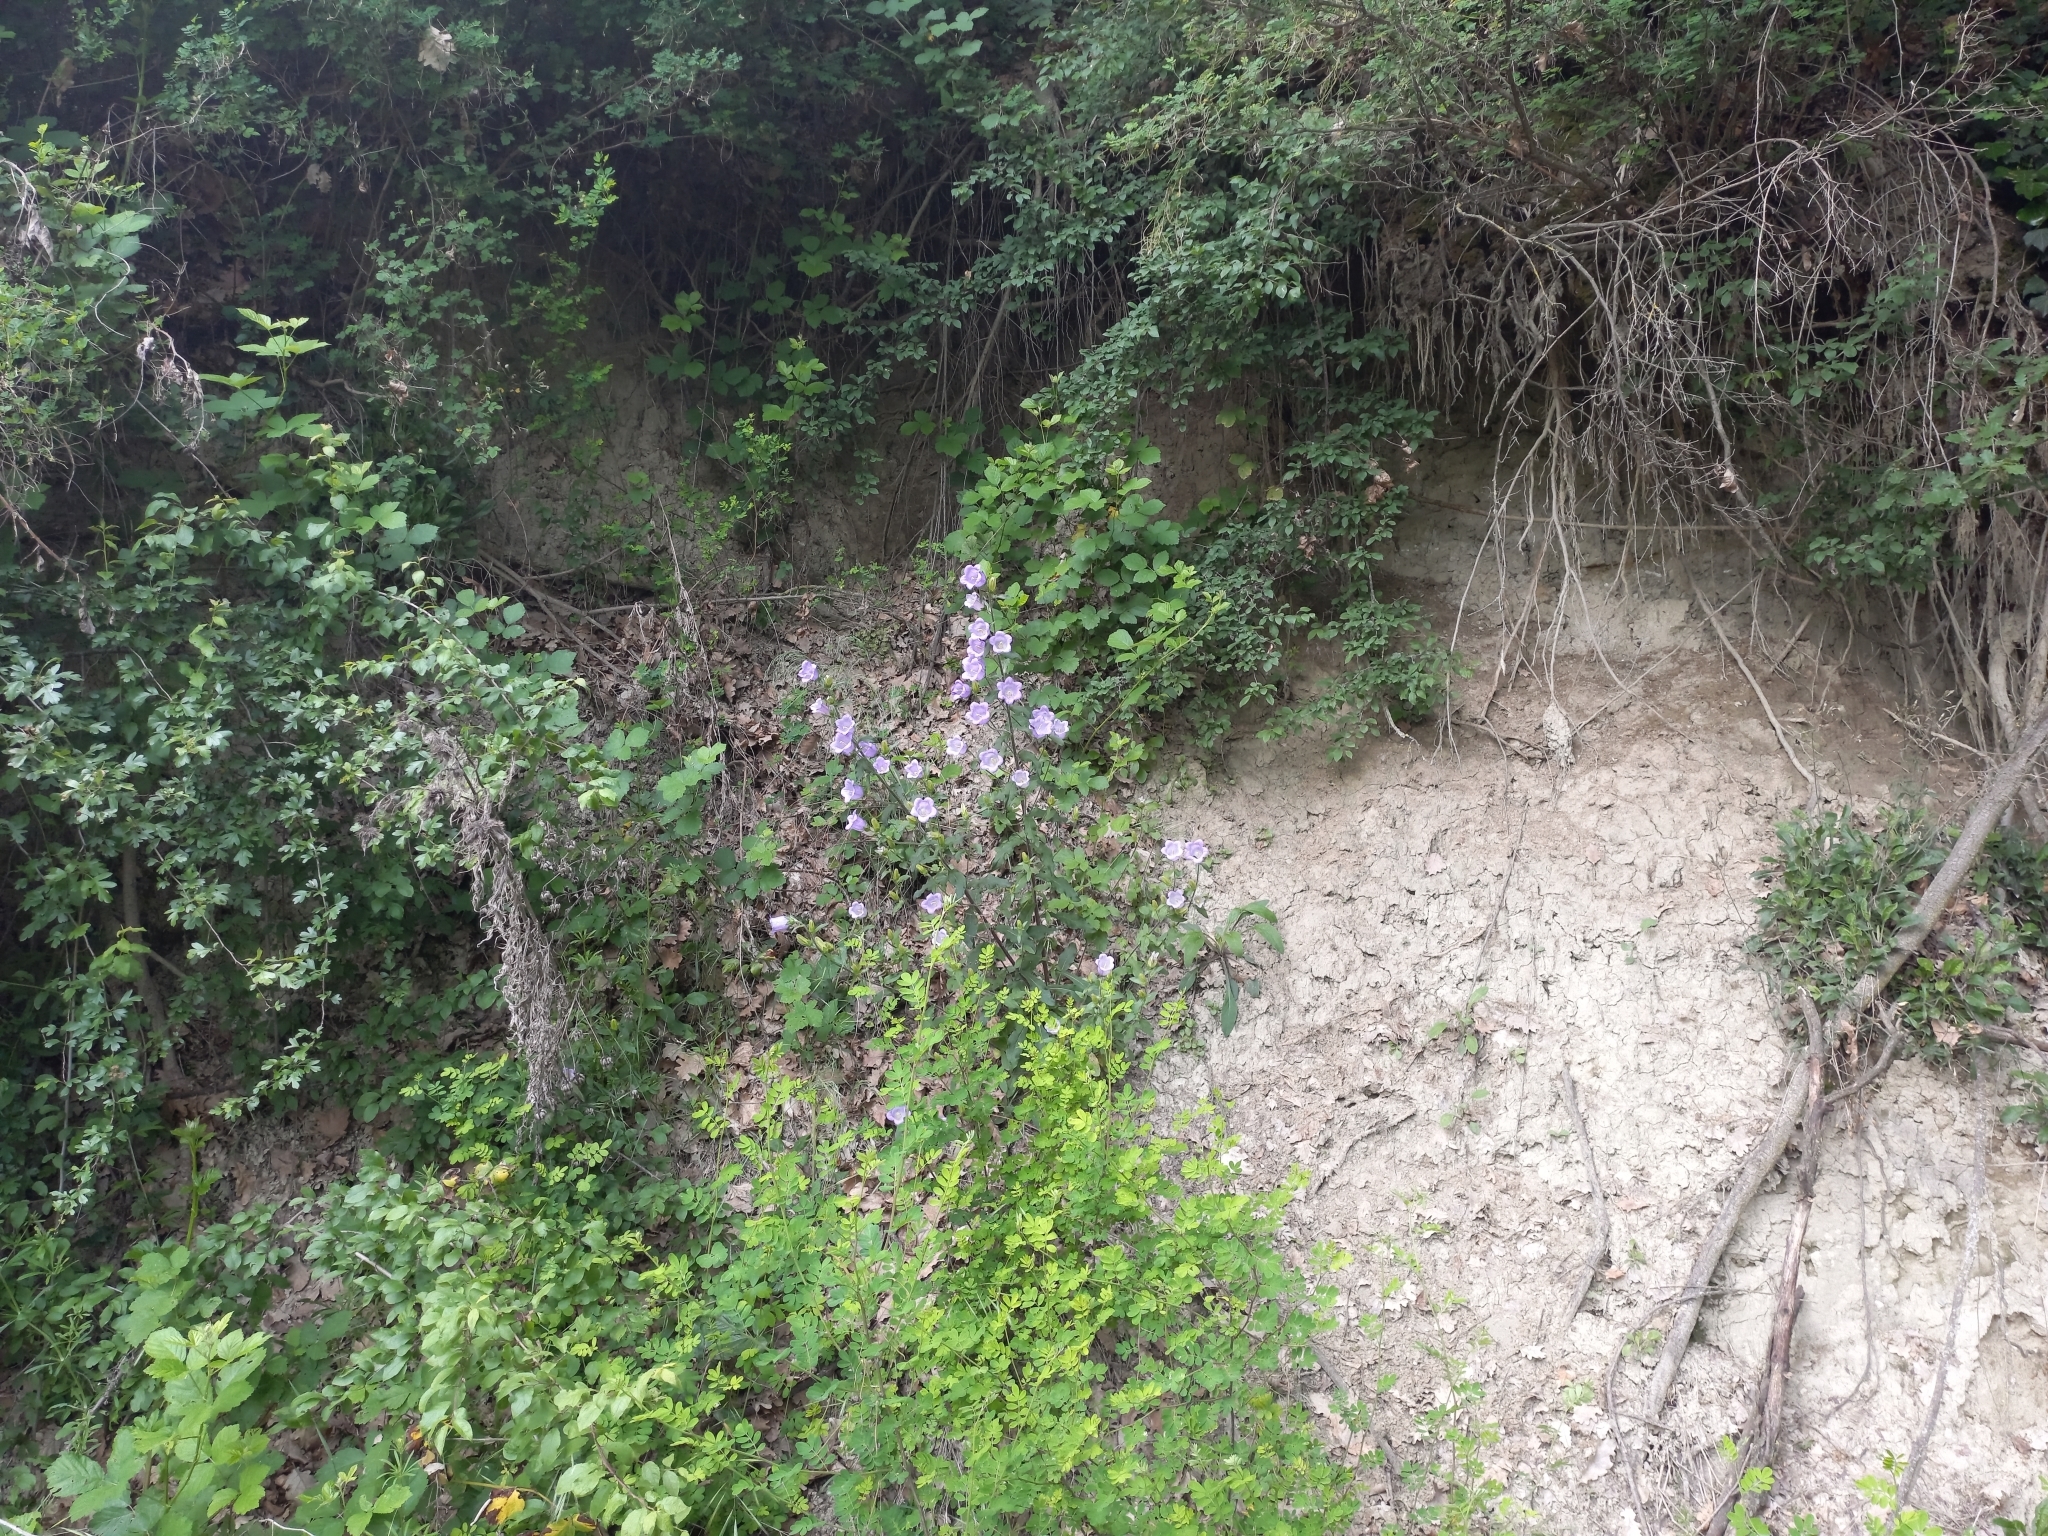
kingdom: Plantae
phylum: Tracheophyta
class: Magnoliopsida
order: Asterales
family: Campanulaceae
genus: Campanula
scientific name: Campanula medium
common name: Canterbury bells
